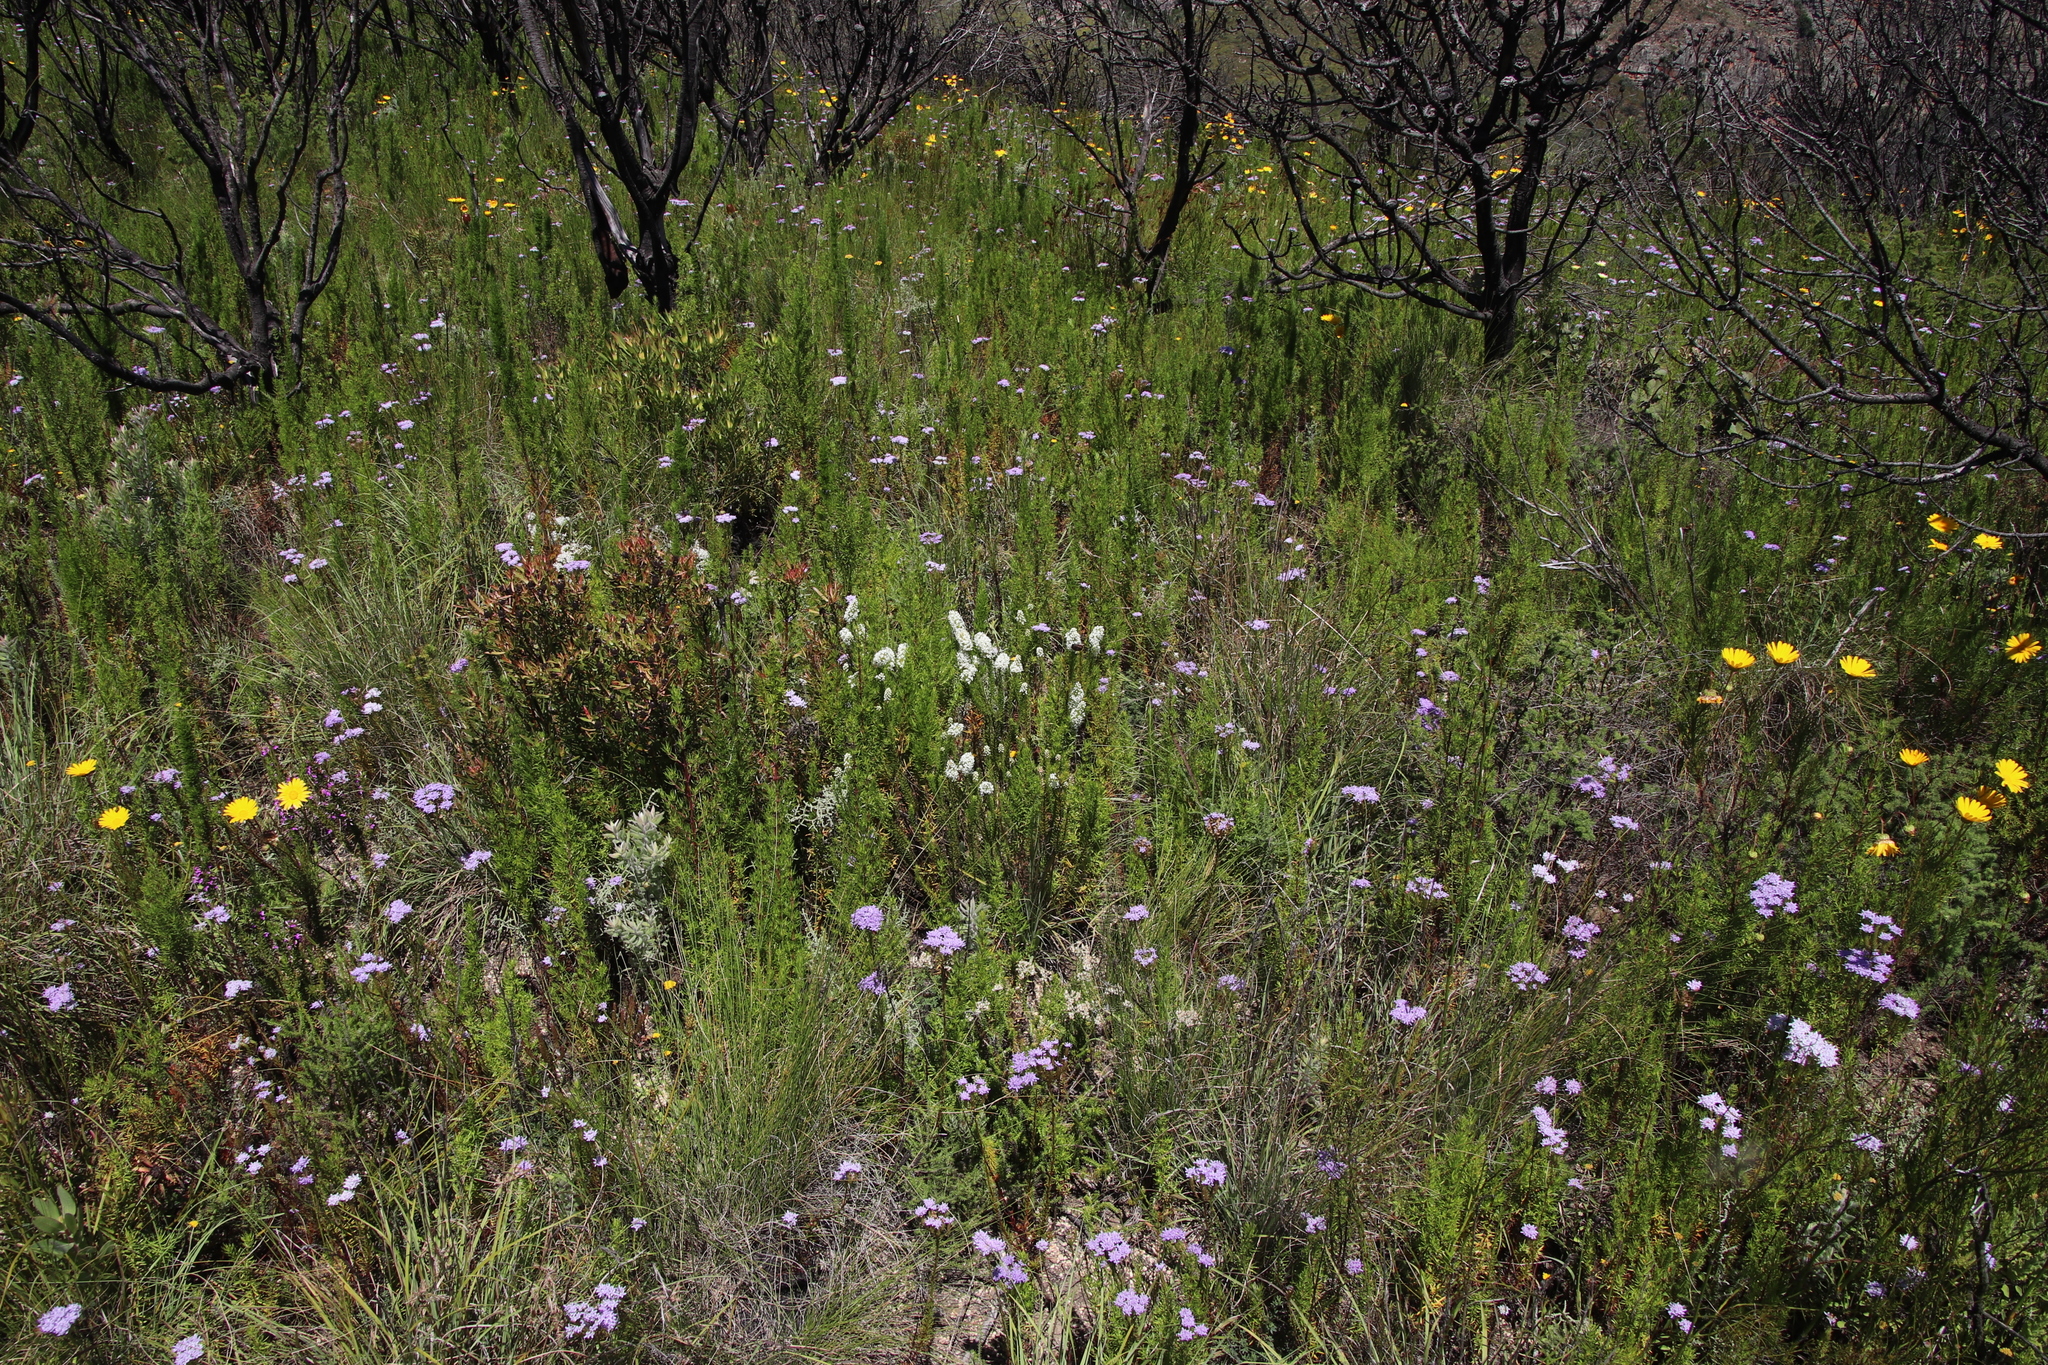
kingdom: Plantae
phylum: Tracheophyta
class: Magnoliopsida
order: Lamiales
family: Scrophulariaceae
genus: Pseudoselago
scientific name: Pseudoselago spuria
